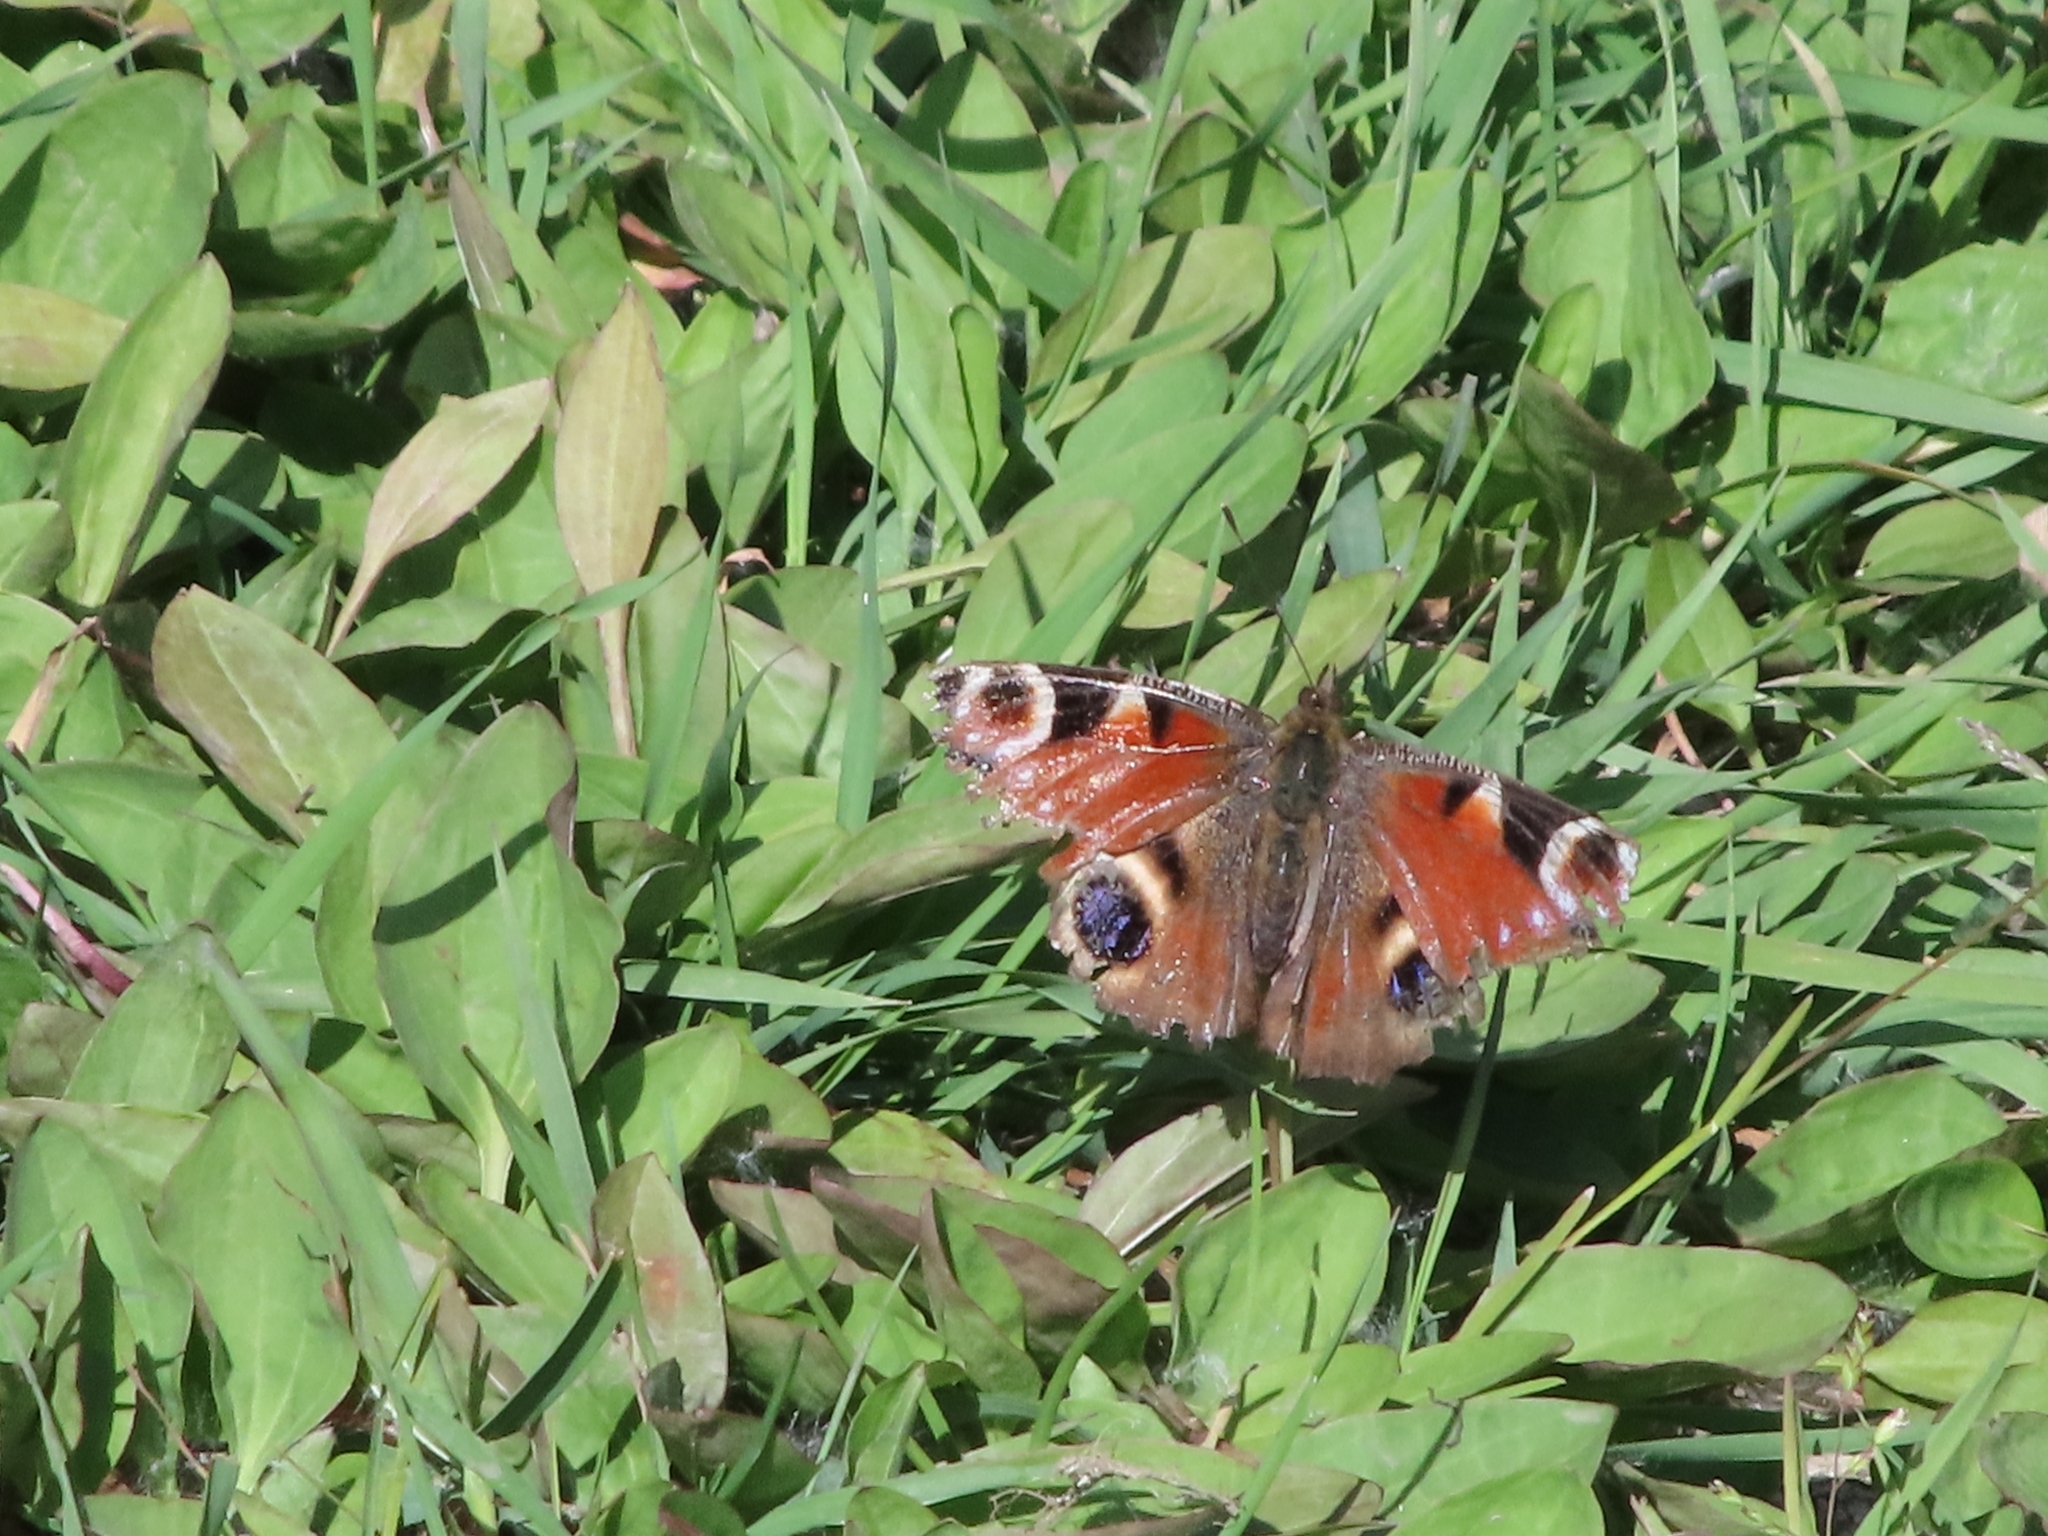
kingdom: Animalia
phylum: Arthropoda
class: Insecta
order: Lepidoptera
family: Nymphalidae
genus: Aglais
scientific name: Aglais io
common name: Peacock
